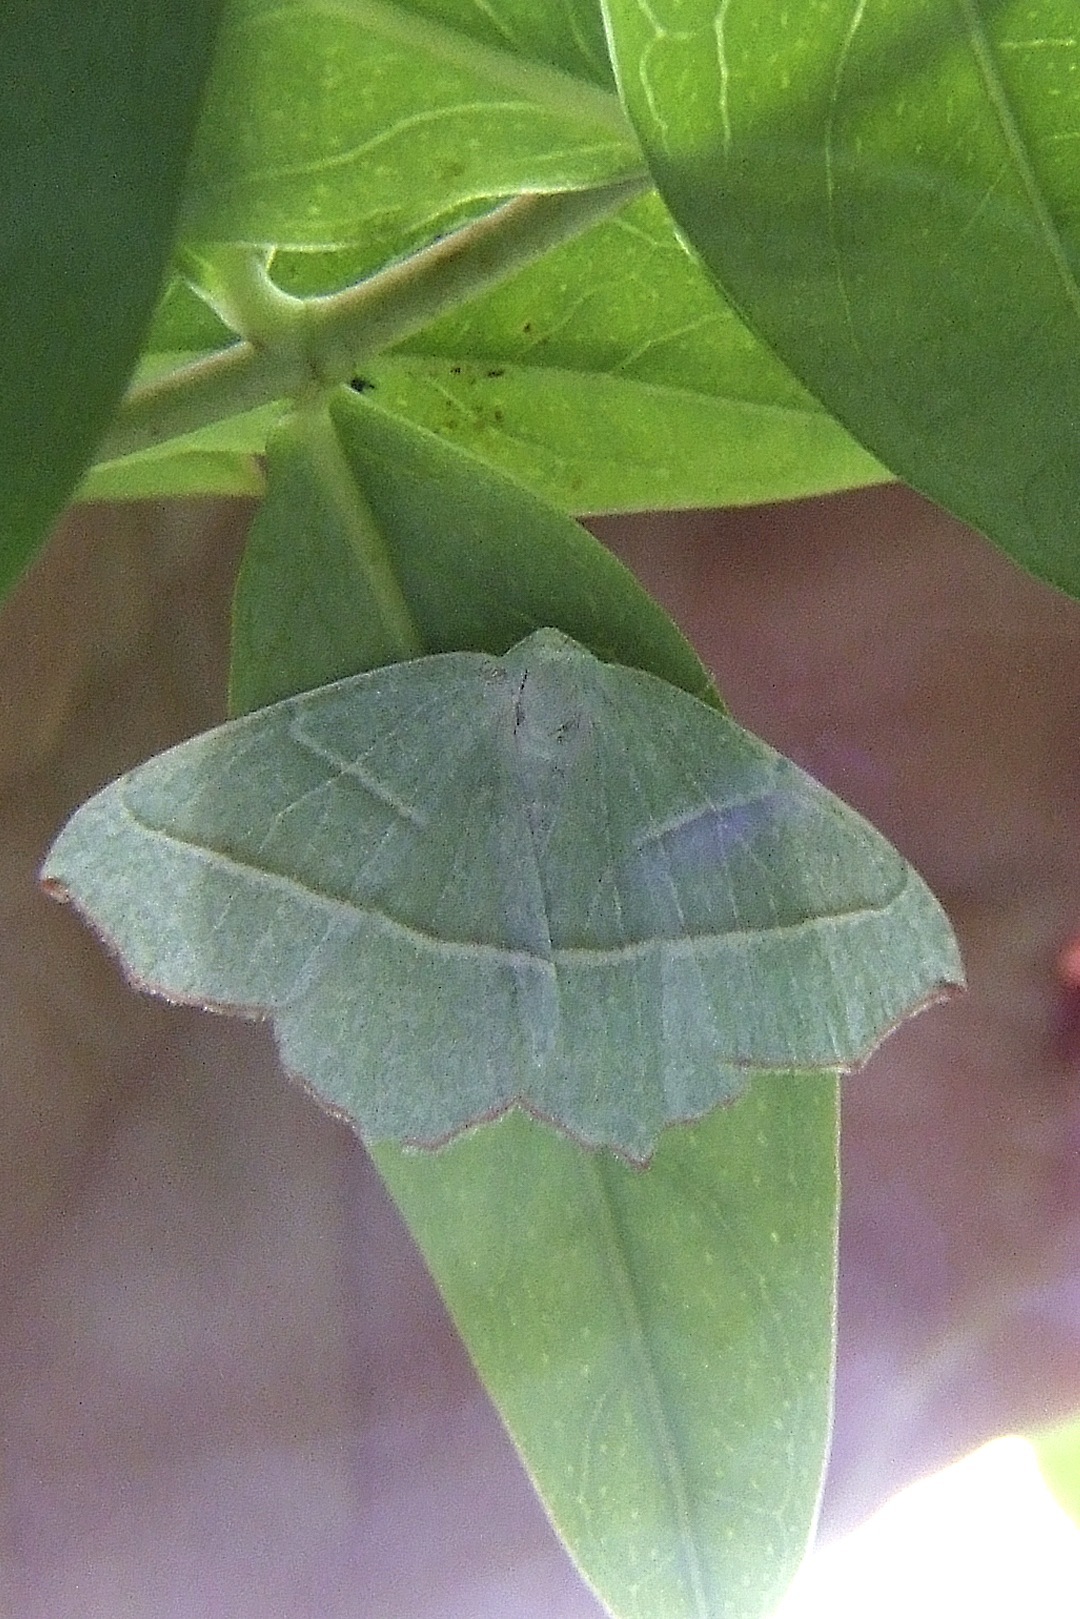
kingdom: Animalia
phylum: Arthropoda
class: Insecta
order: Lepidoptera
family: Geometridae
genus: Campaea
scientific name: Campaea margaritaria
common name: Light emerald
